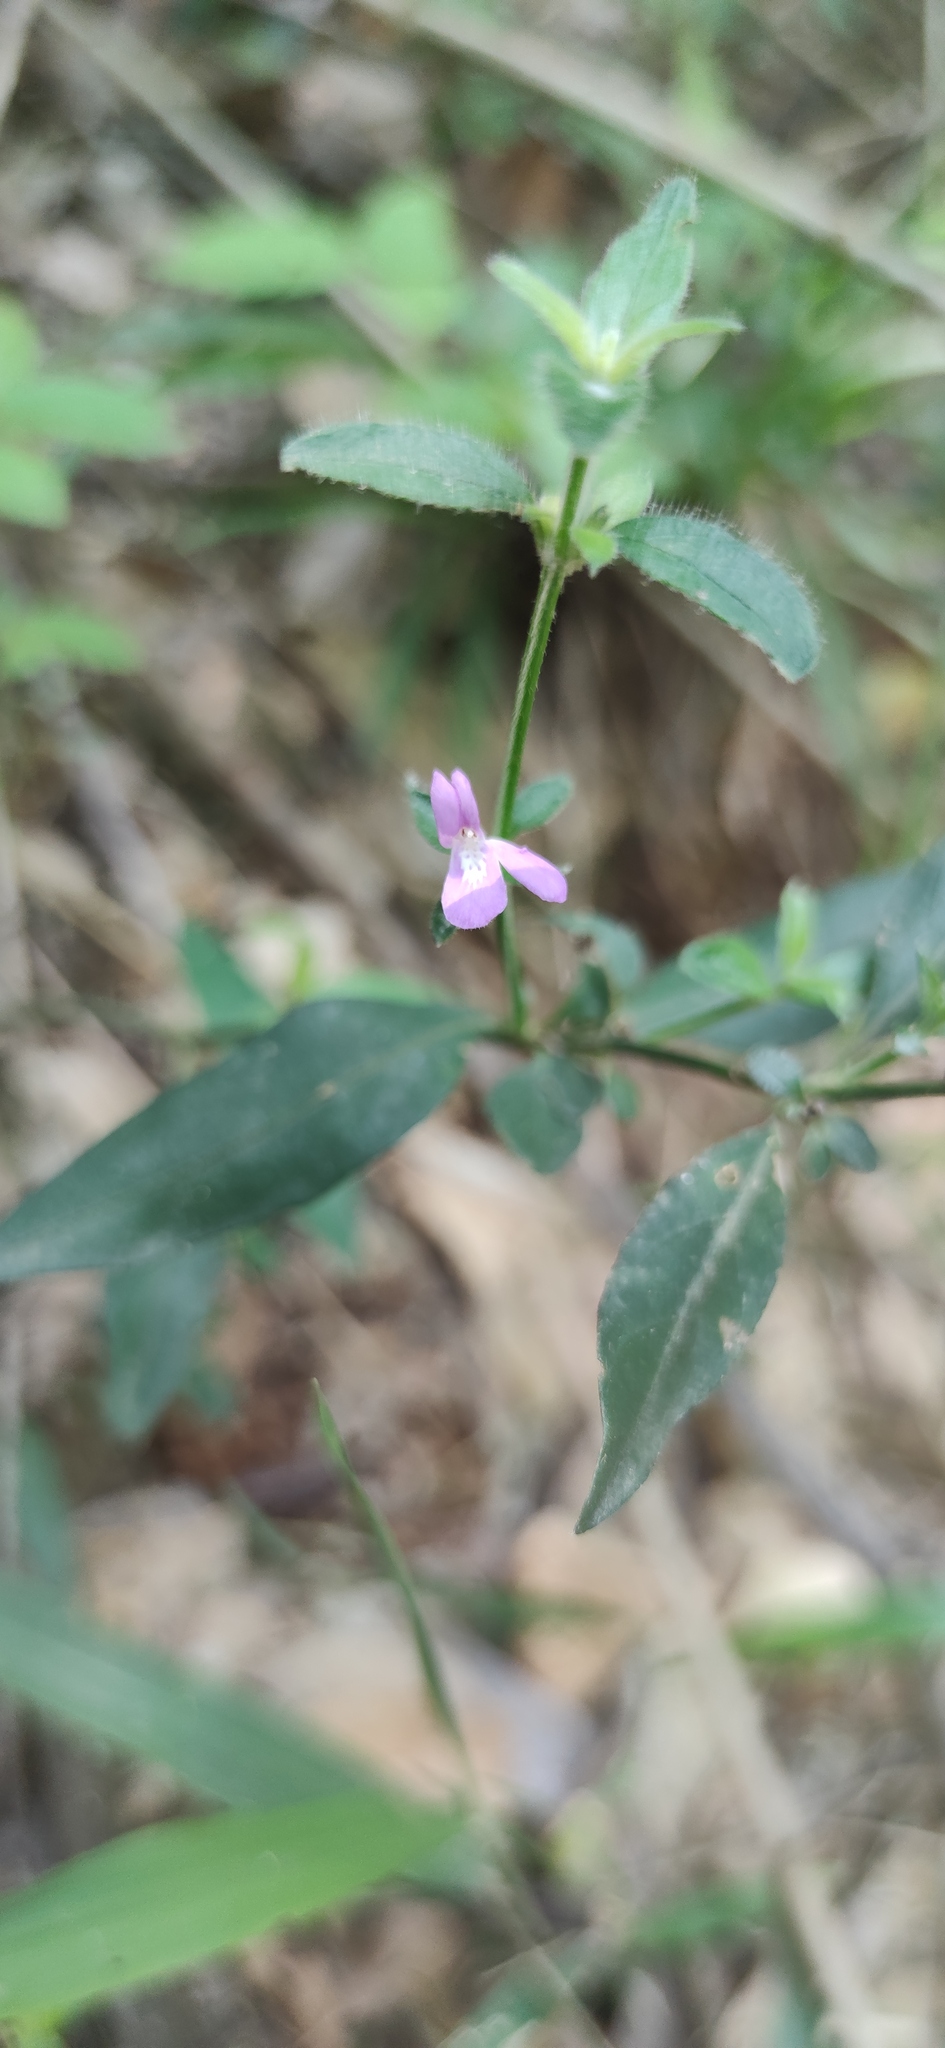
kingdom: Plantae
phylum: Tracheophyta
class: Magnoliopsida
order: Lamiales
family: Acanthaceae
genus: Justicia
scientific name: Justicia hintoniorum
